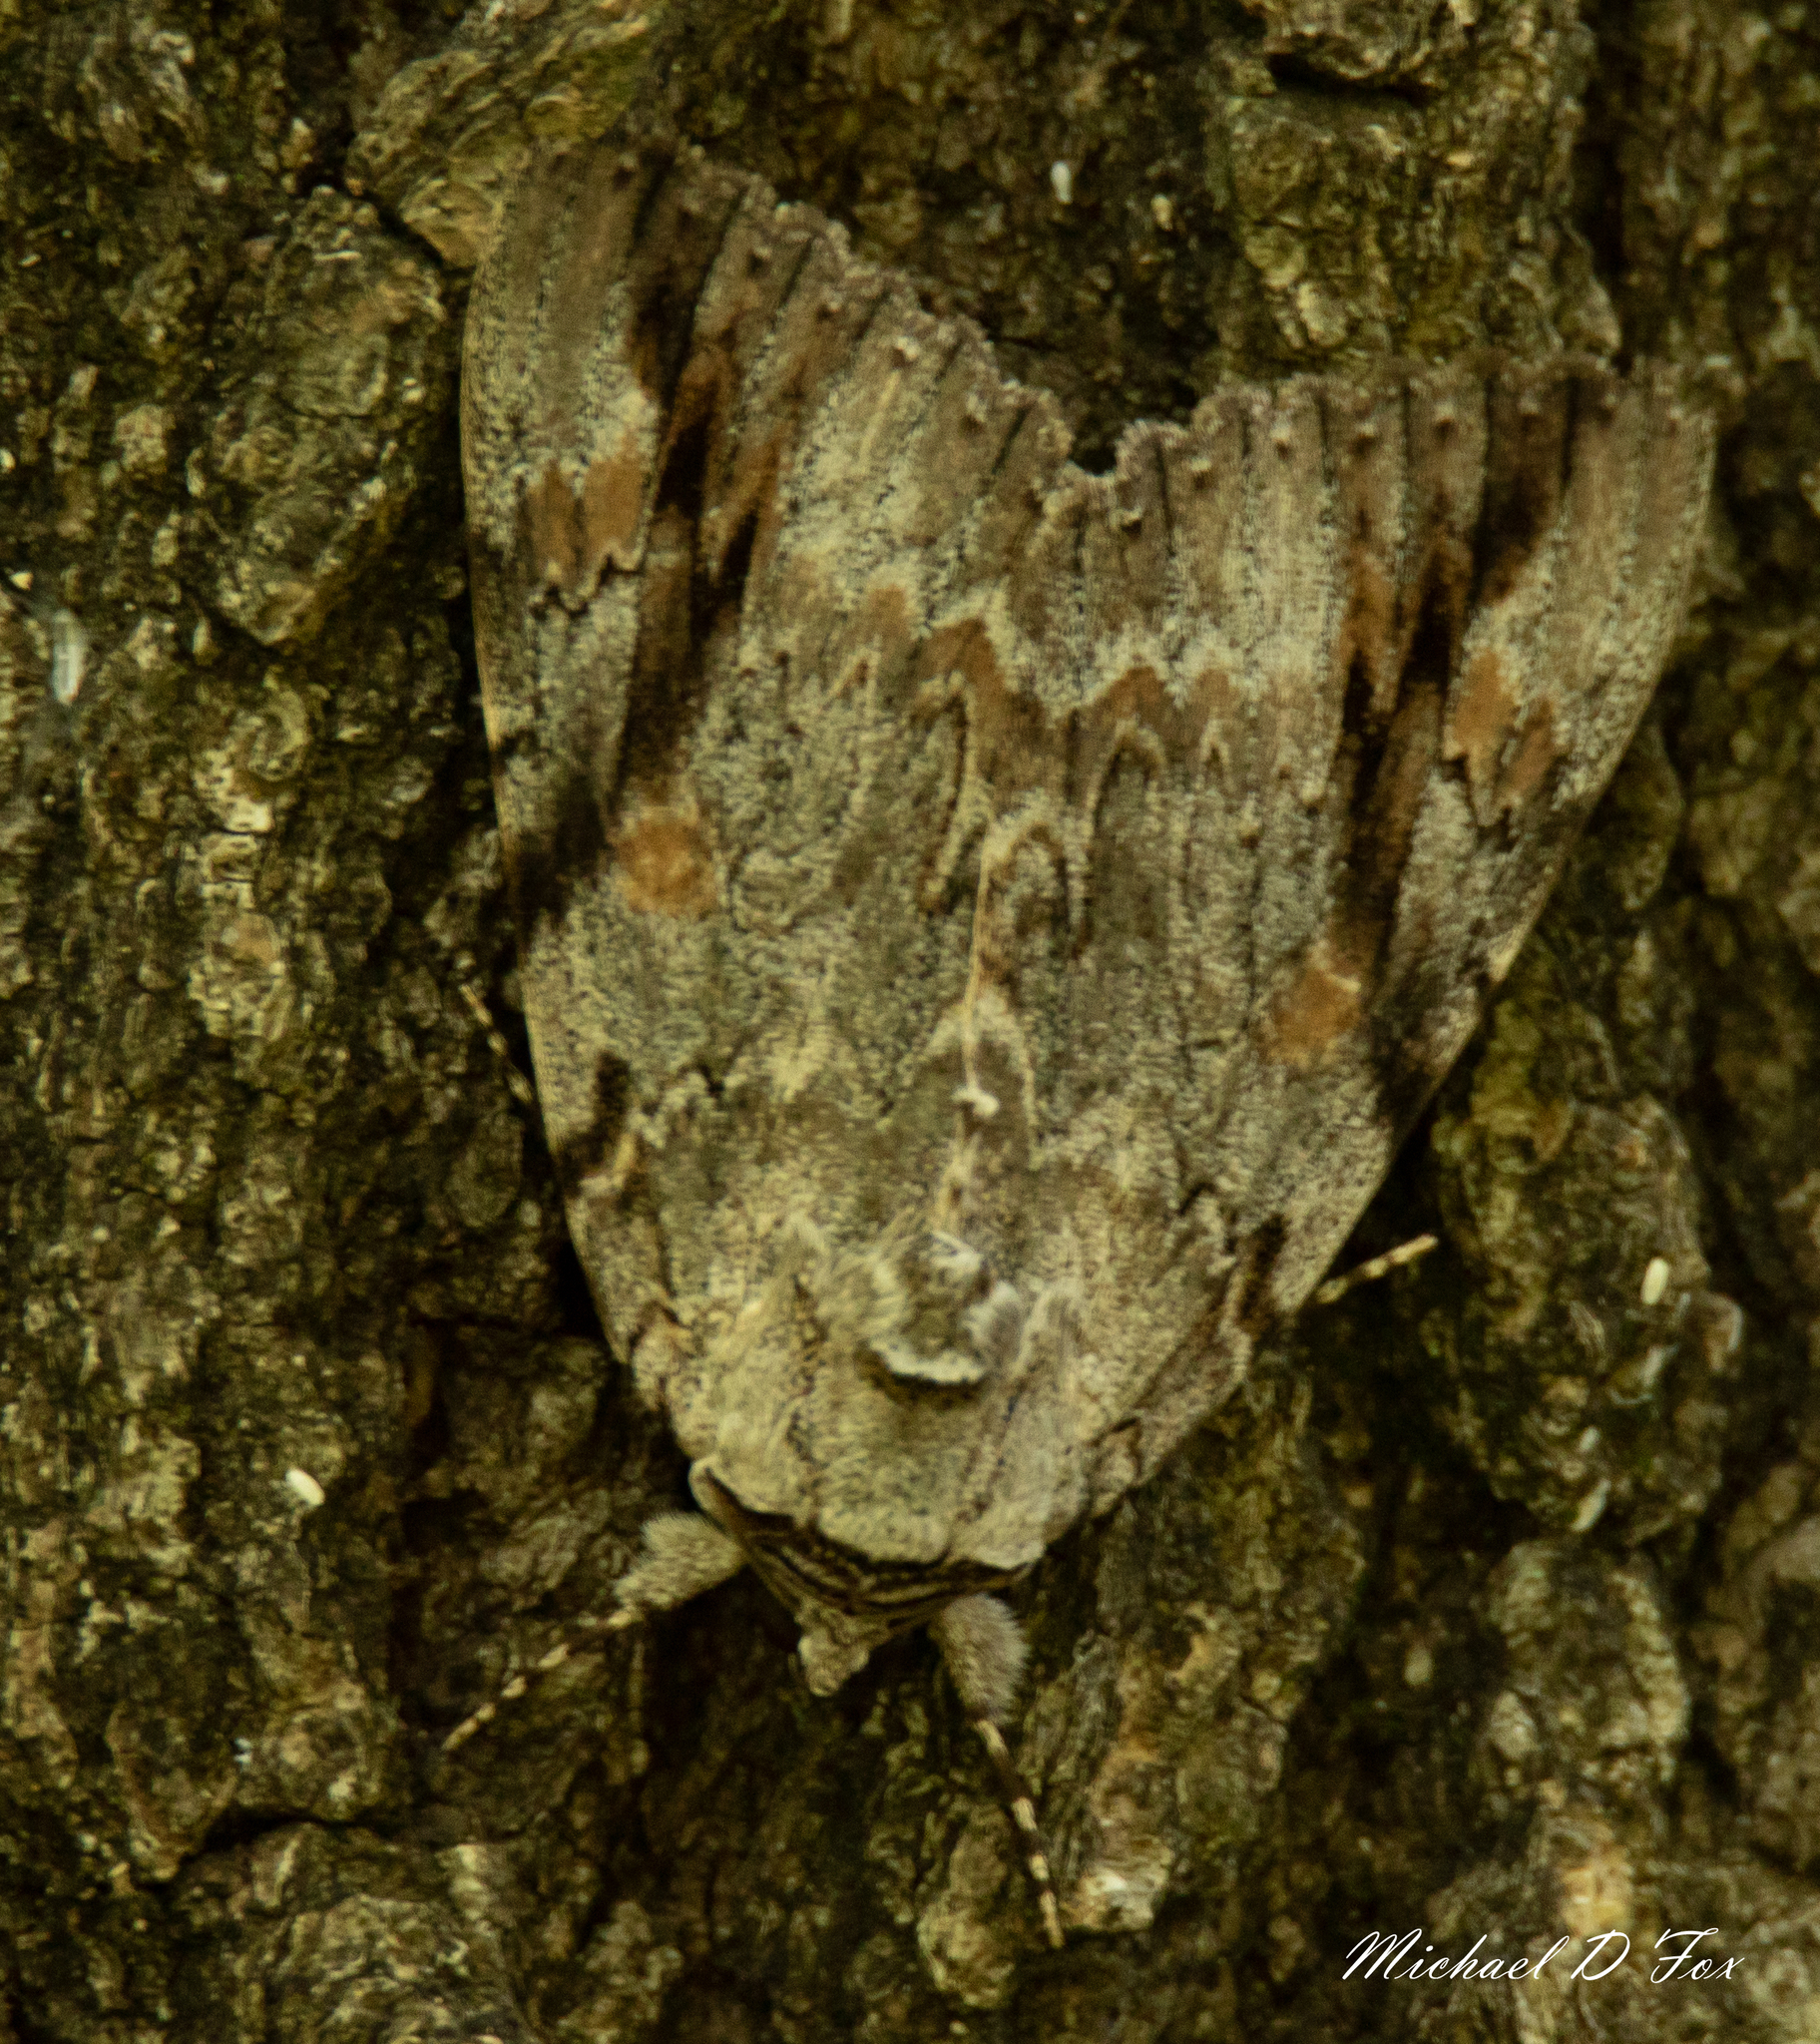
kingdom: Animalia
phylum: Arthropoda
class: Insecta
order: Lepidoptera
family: Erebidae
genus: Catocala
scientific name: Catocala maestosa
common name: Sad underwing
